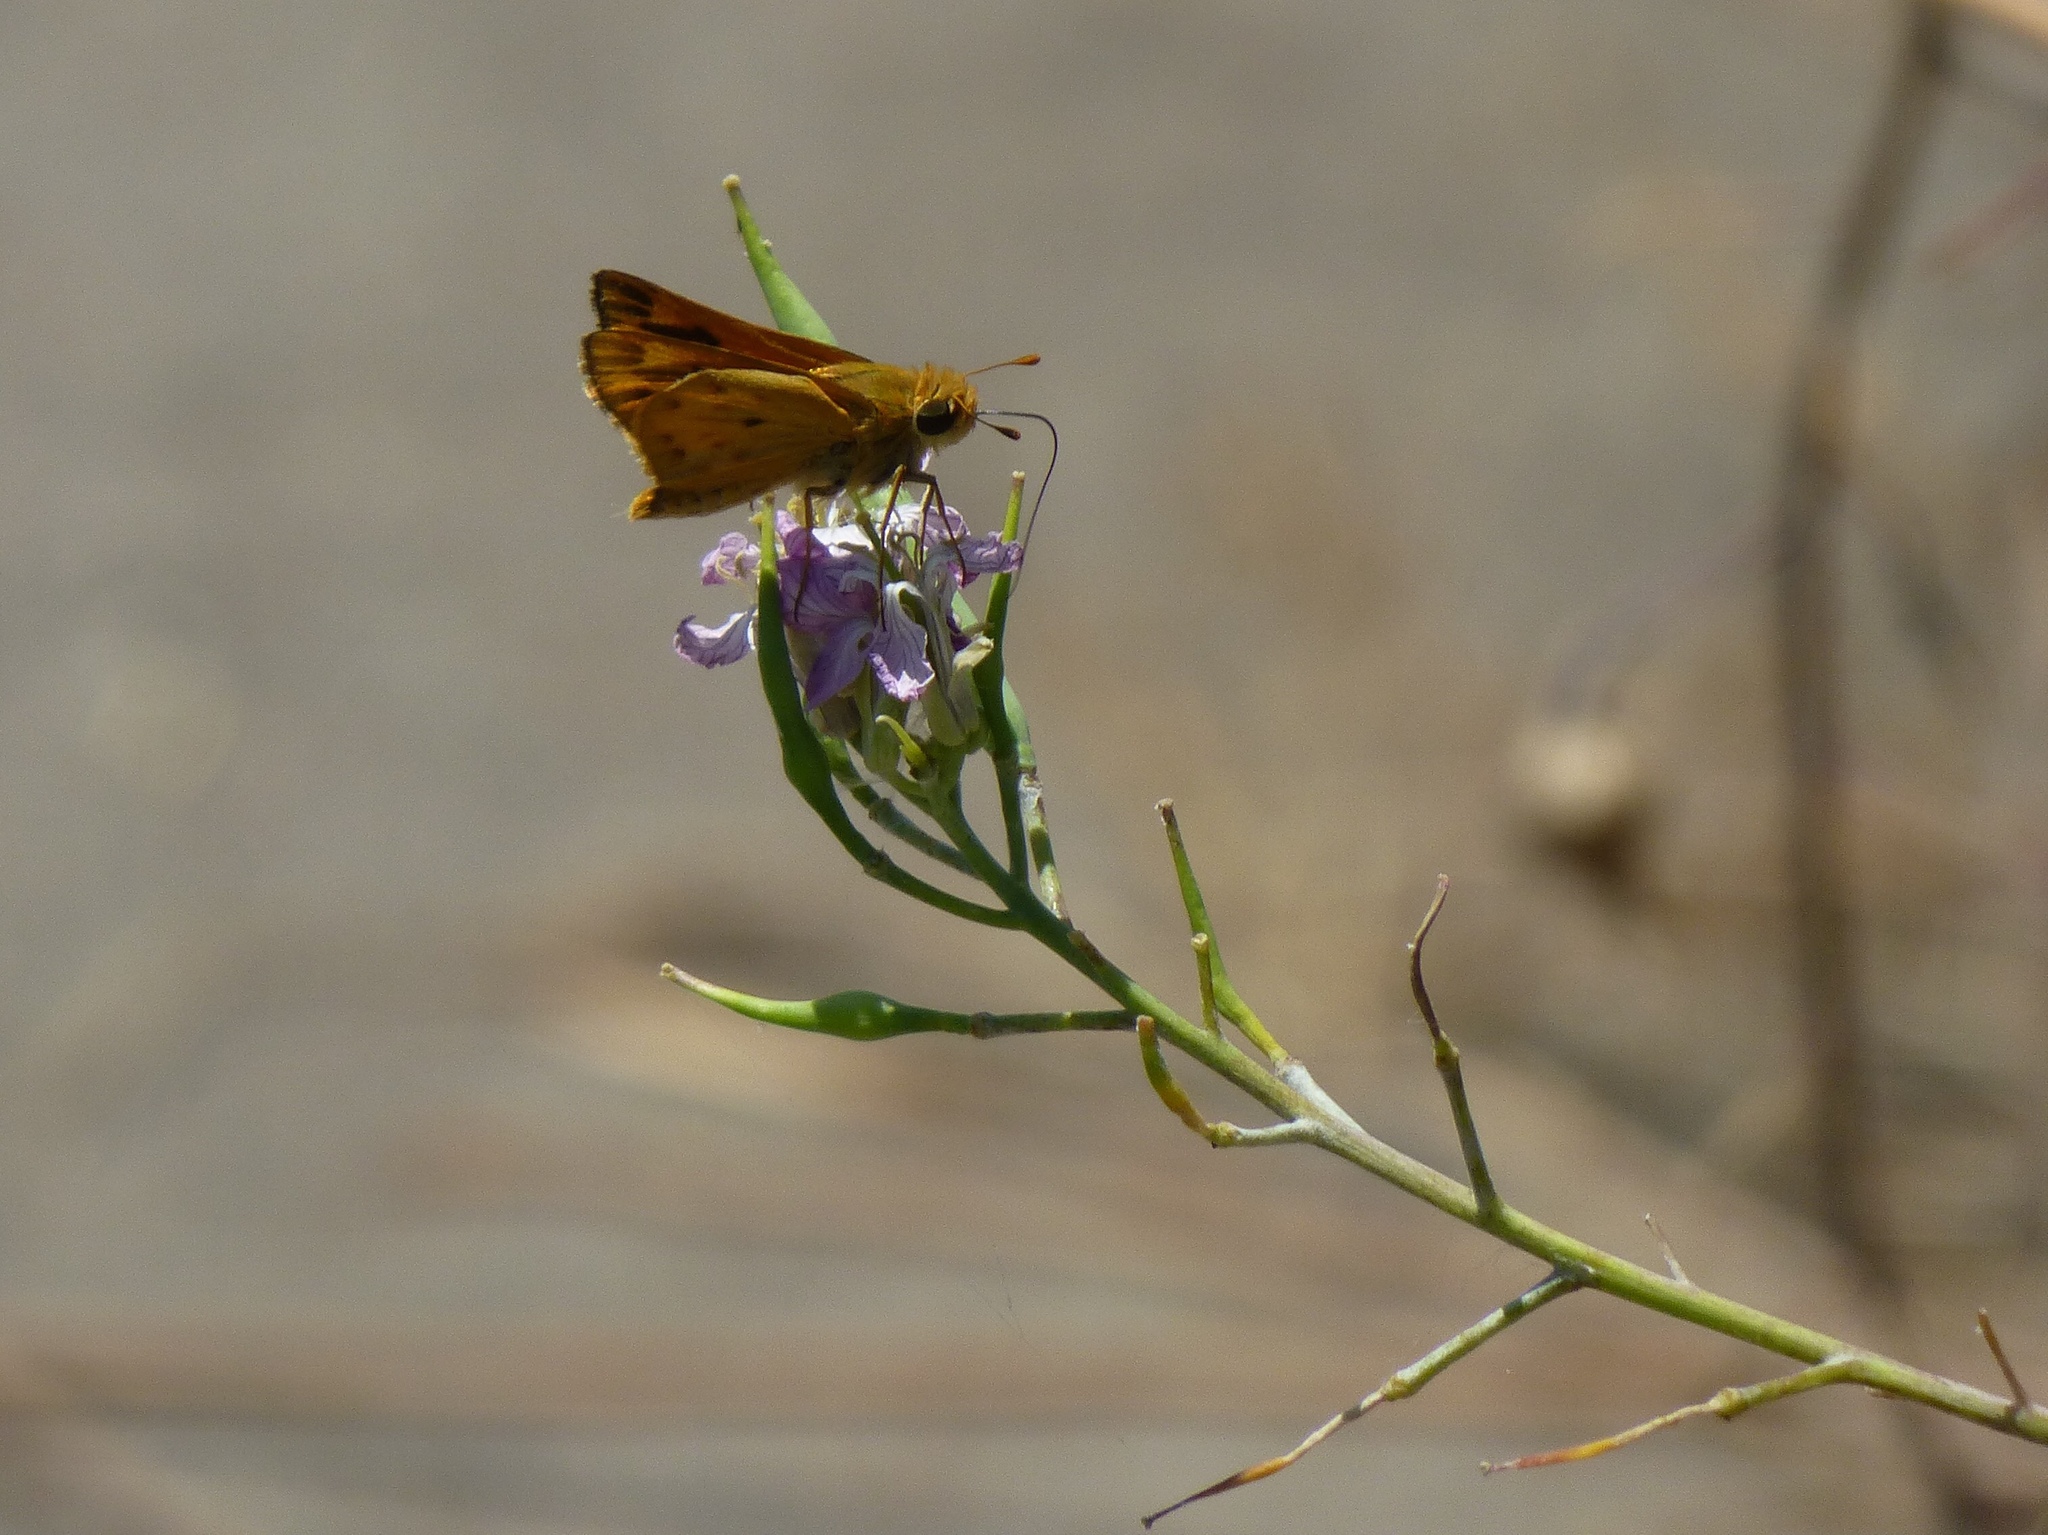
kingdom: Animalia
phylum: Arthropoda
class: Insecta
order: Lepidoptera
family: Hesperiidae
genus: Hylephila
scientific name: Hylephila phyleus
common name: Fiery skipper
